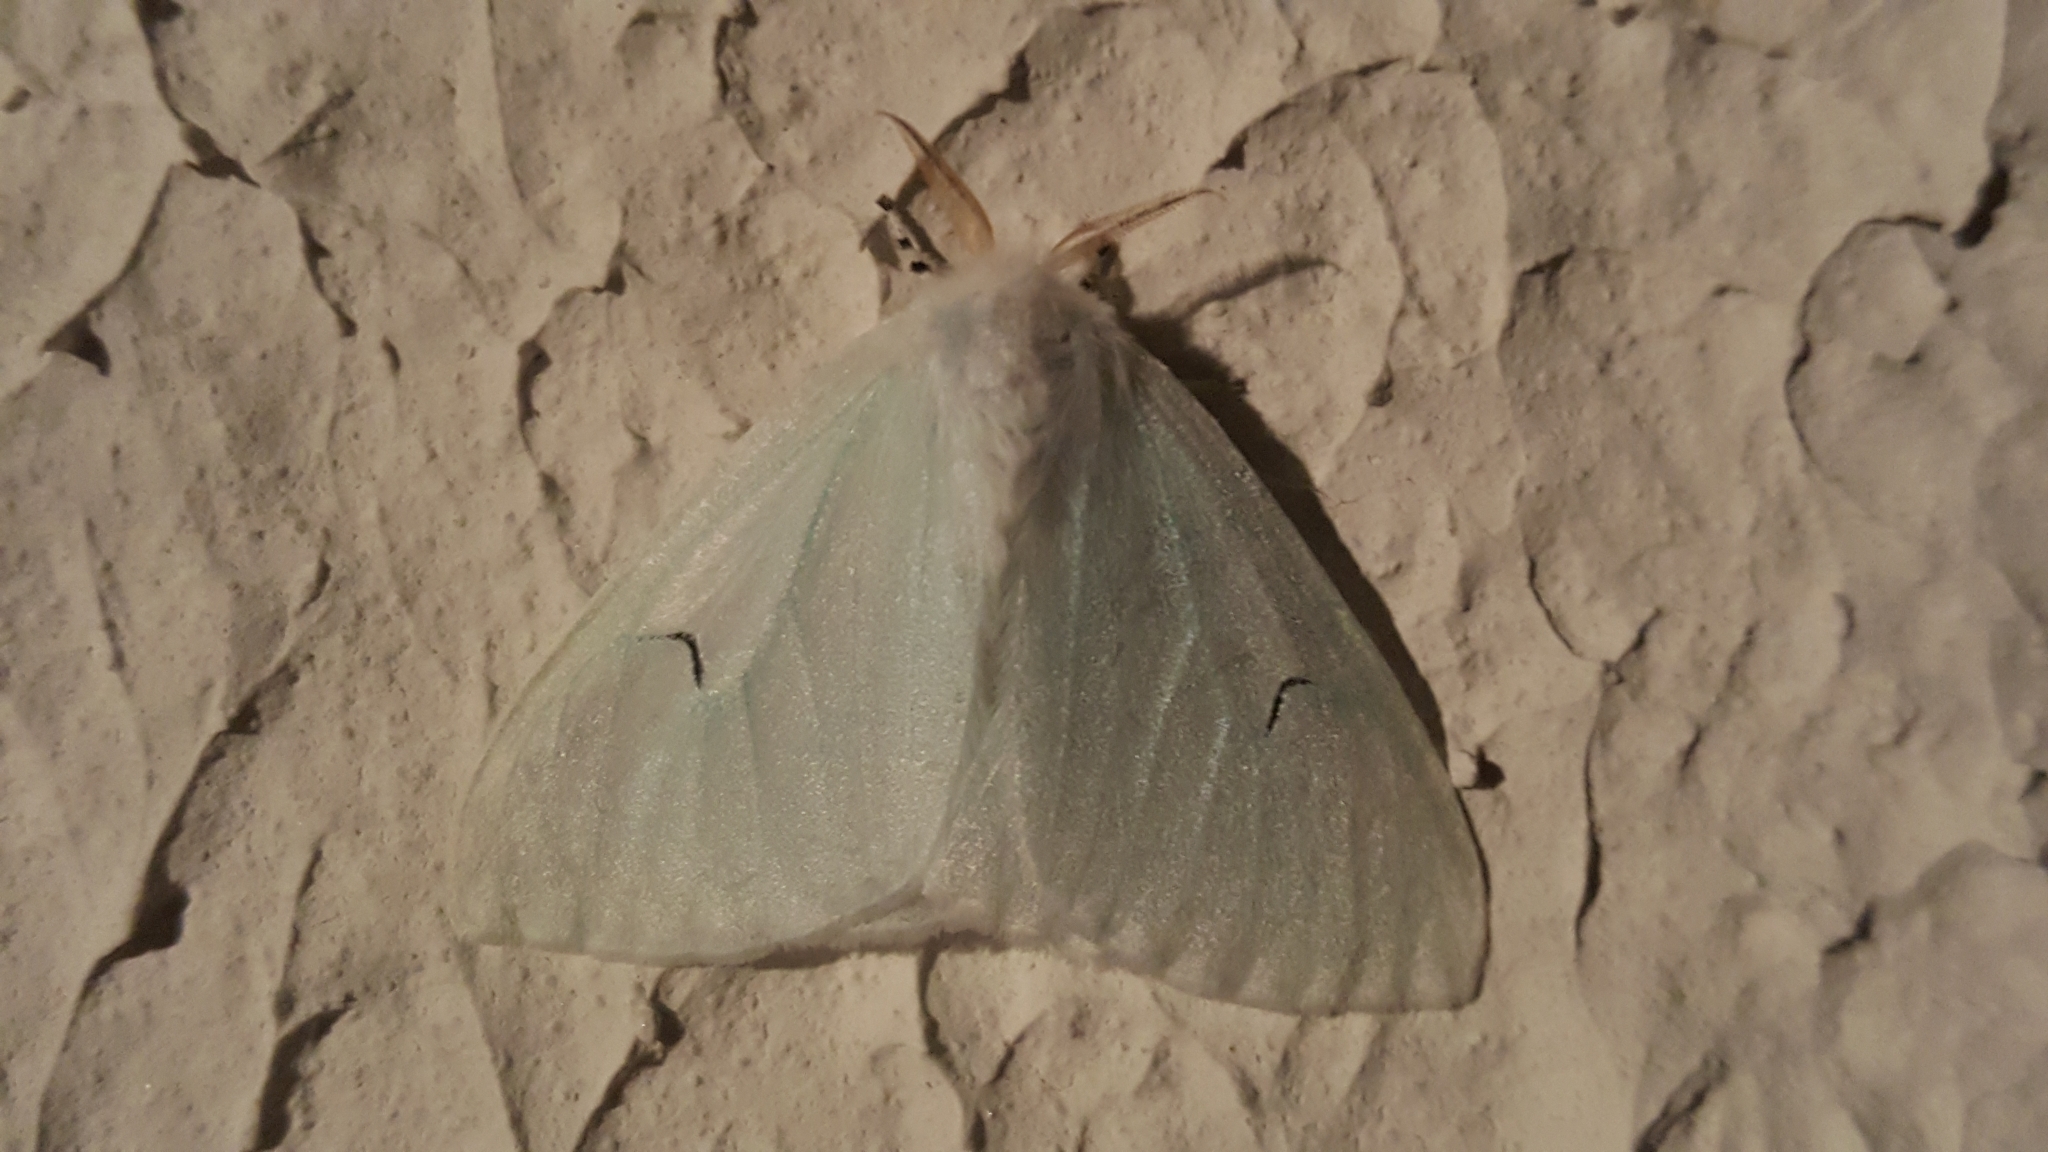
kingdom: Animalia
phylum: Arthropoda
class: Insecta
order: Lepidoptera
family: Erebidae
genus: Arctornis
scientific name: Arctornis l-nigrum
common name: Black v moth
